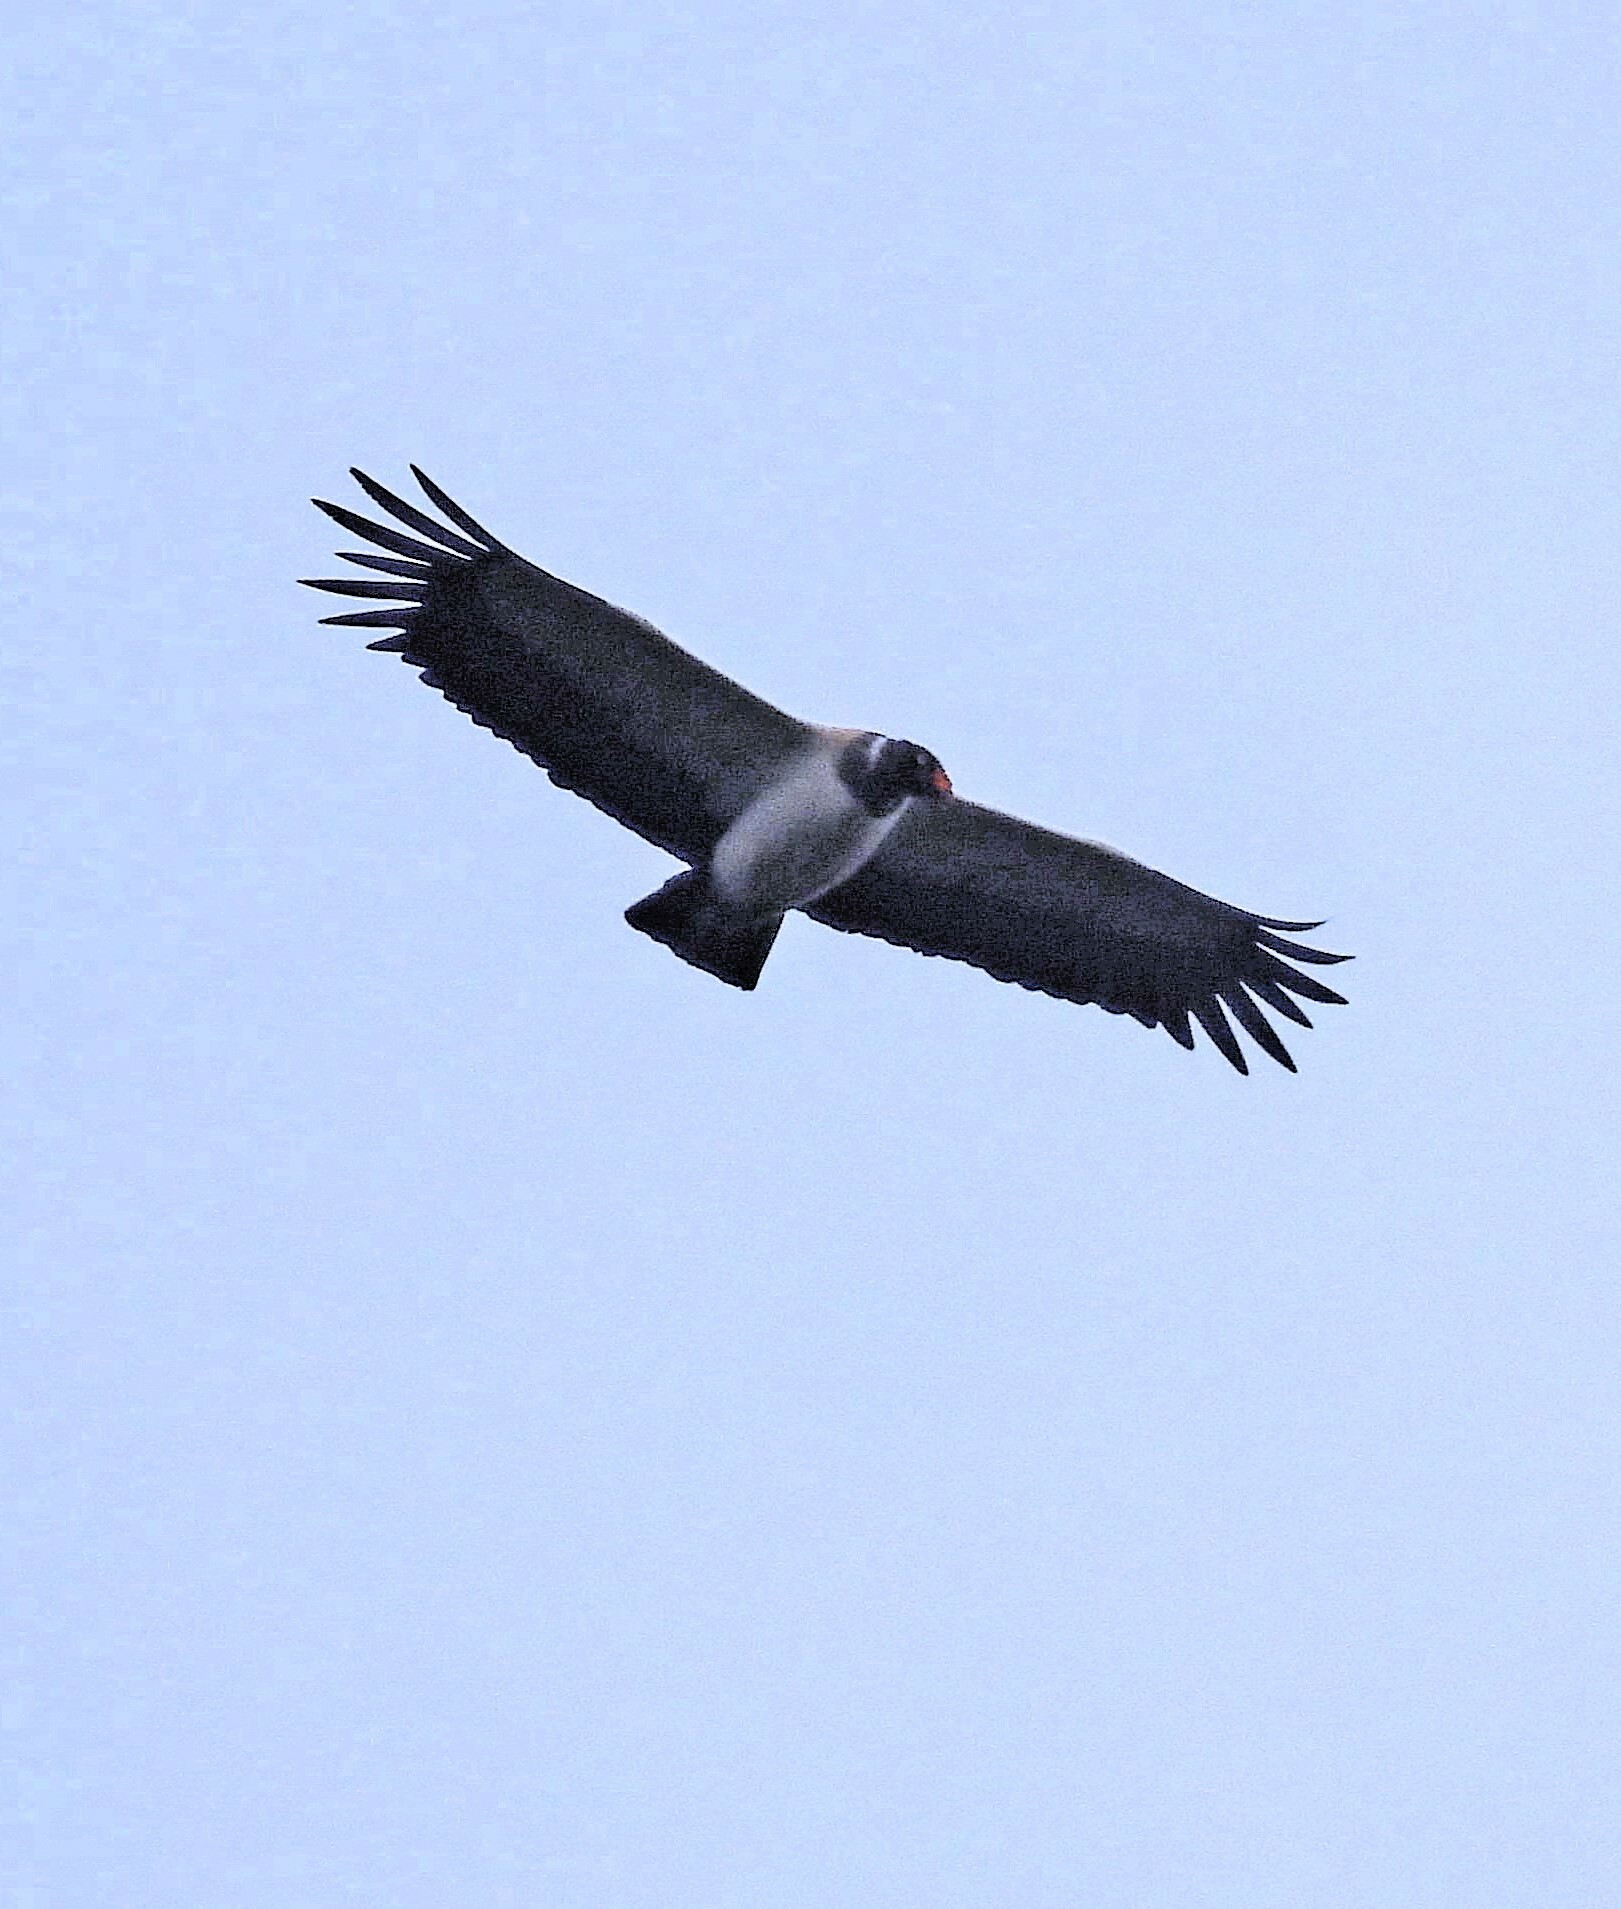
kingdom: Animalia
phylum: Chordata
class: Aves
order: Accipitriformes
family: Cathartidae
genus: Sarcoramphus
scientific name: Sarcoramphus papa
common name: King vulture
